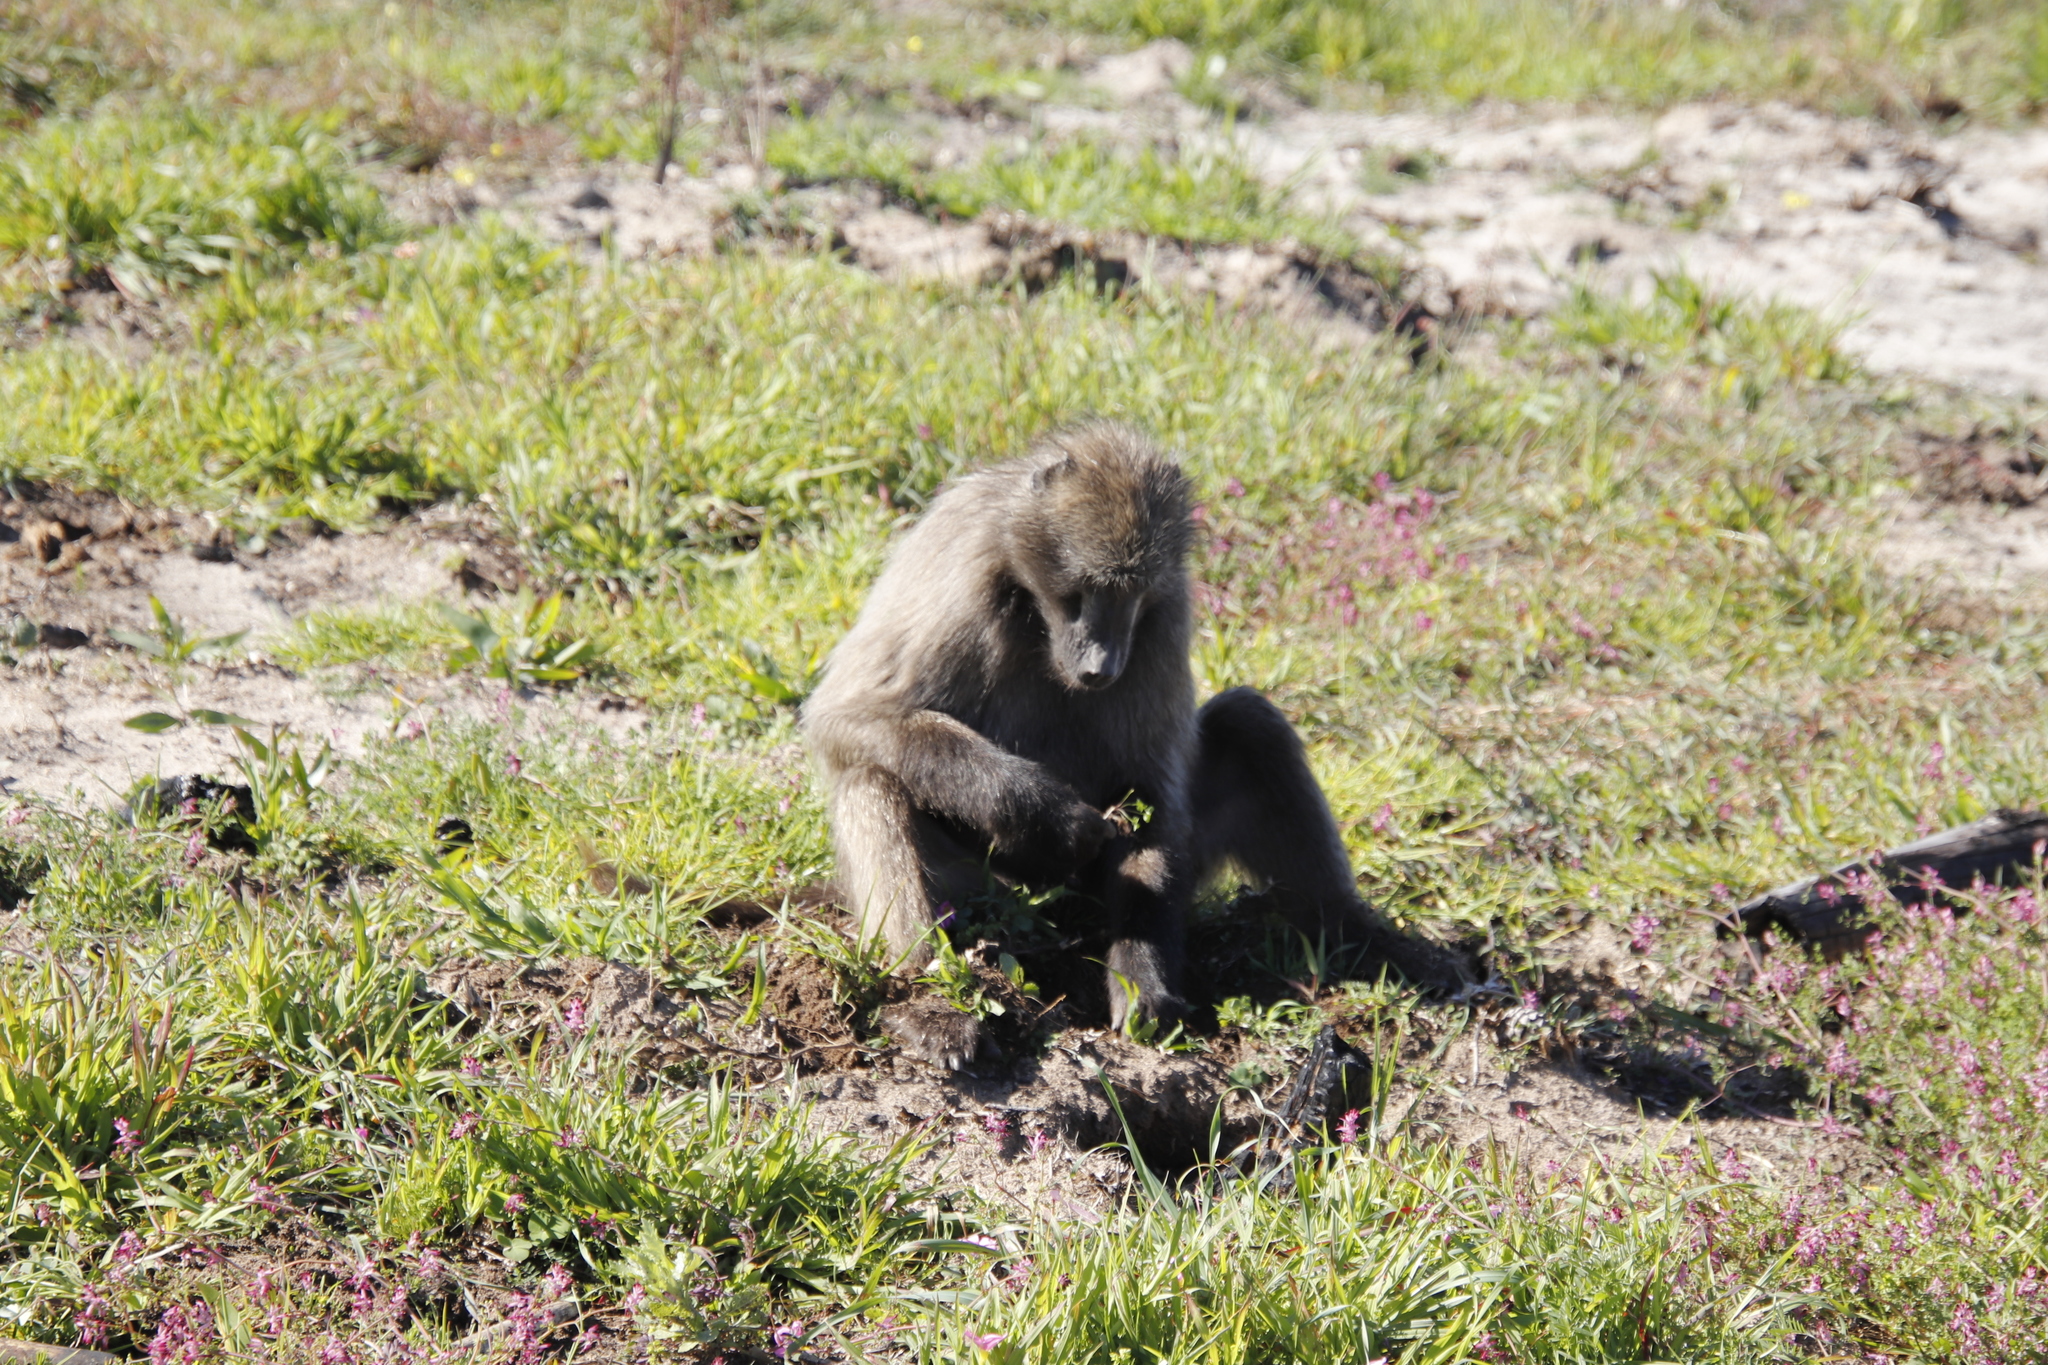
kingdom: Animalia
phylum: Chordata
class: Mammalia
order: Primates
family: Cercopithecidae
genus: Papio
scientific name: Papio ursinus
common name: Chacma baboon
